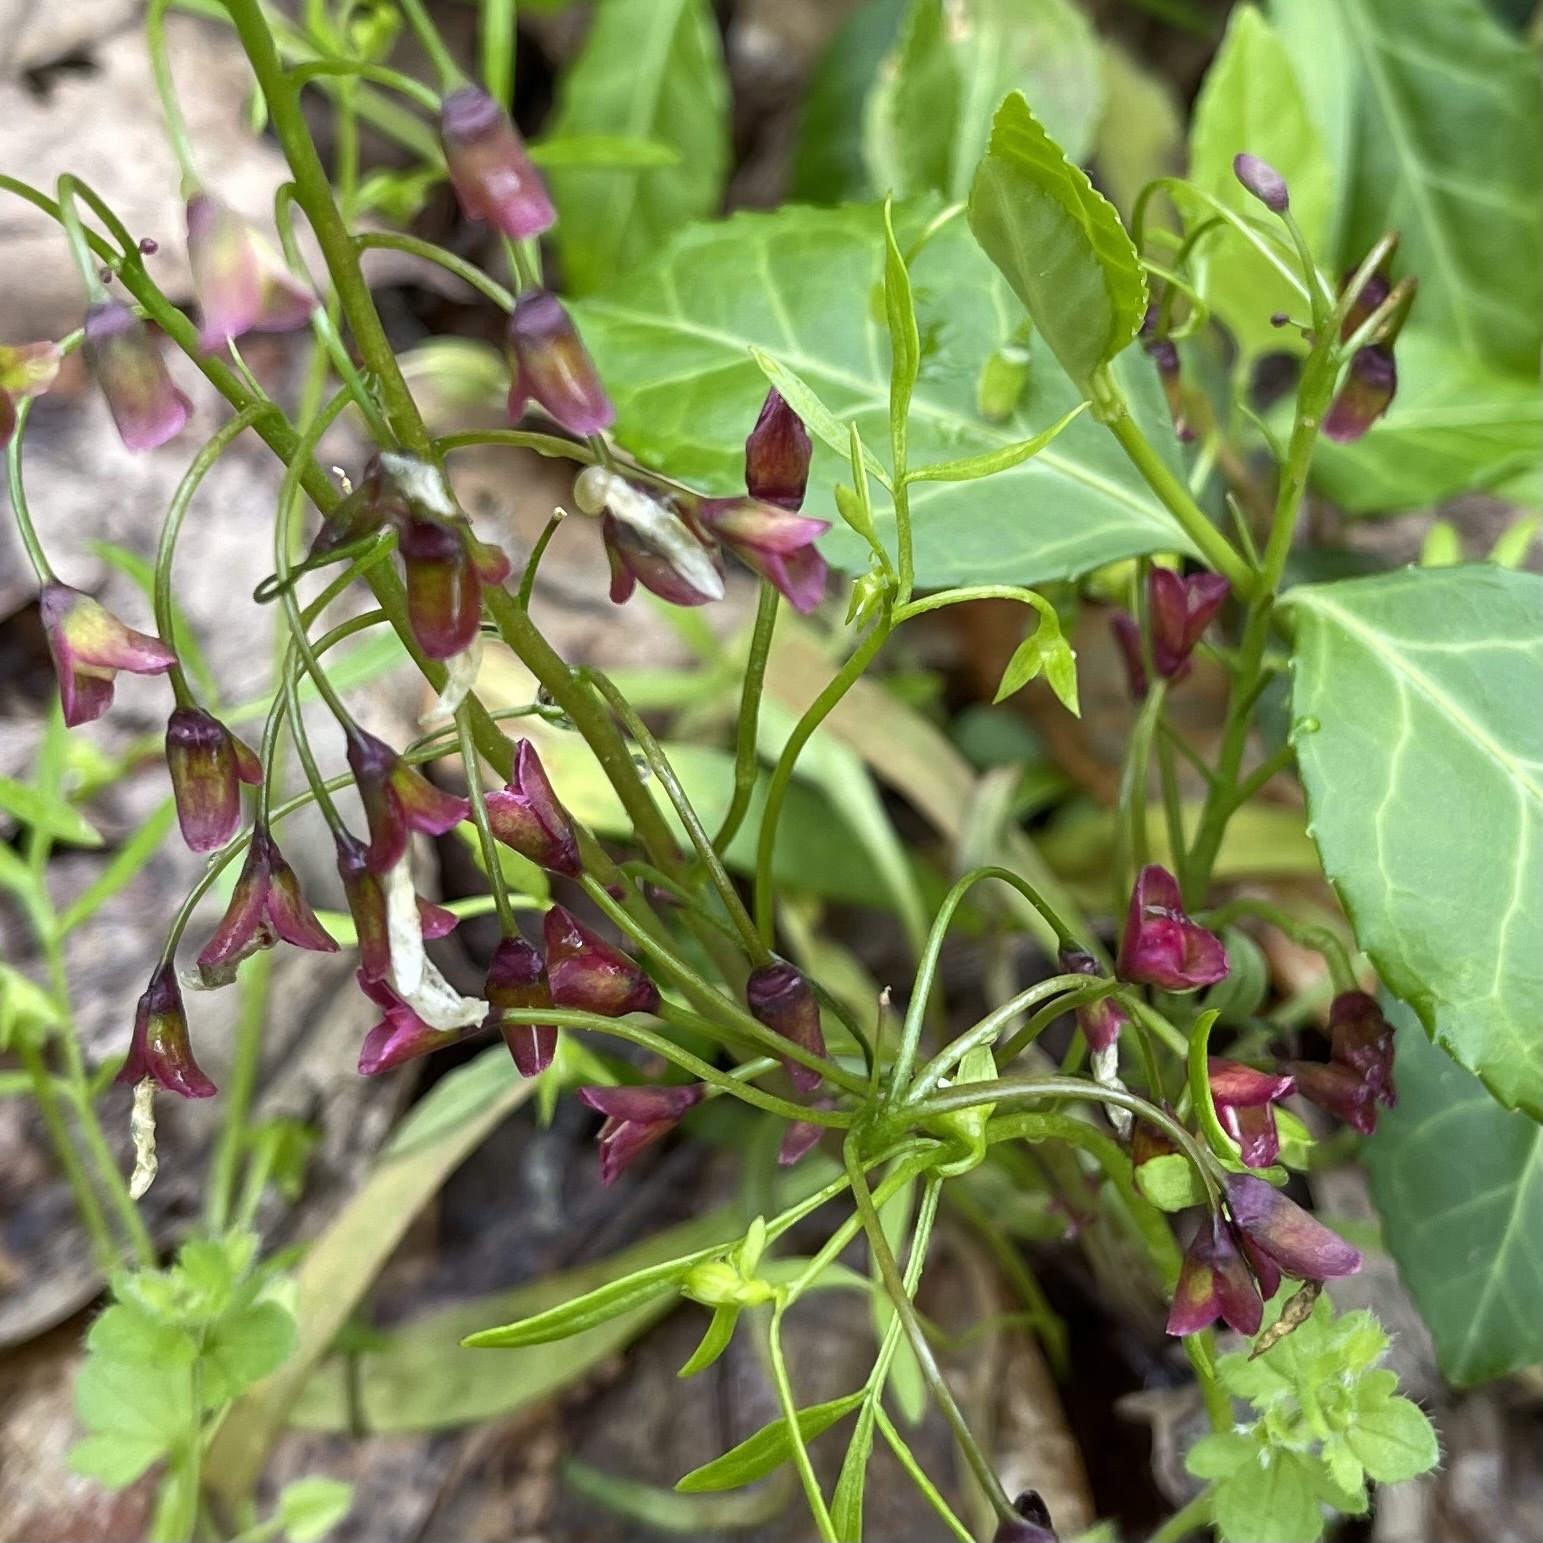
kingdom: Plantae
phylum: Tracheophyta
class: Magnoliopsida
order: Caryophyllales
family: Montiaceae
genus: Claytonia
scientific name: Claytonia virginica
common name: Virginia springbeauty
